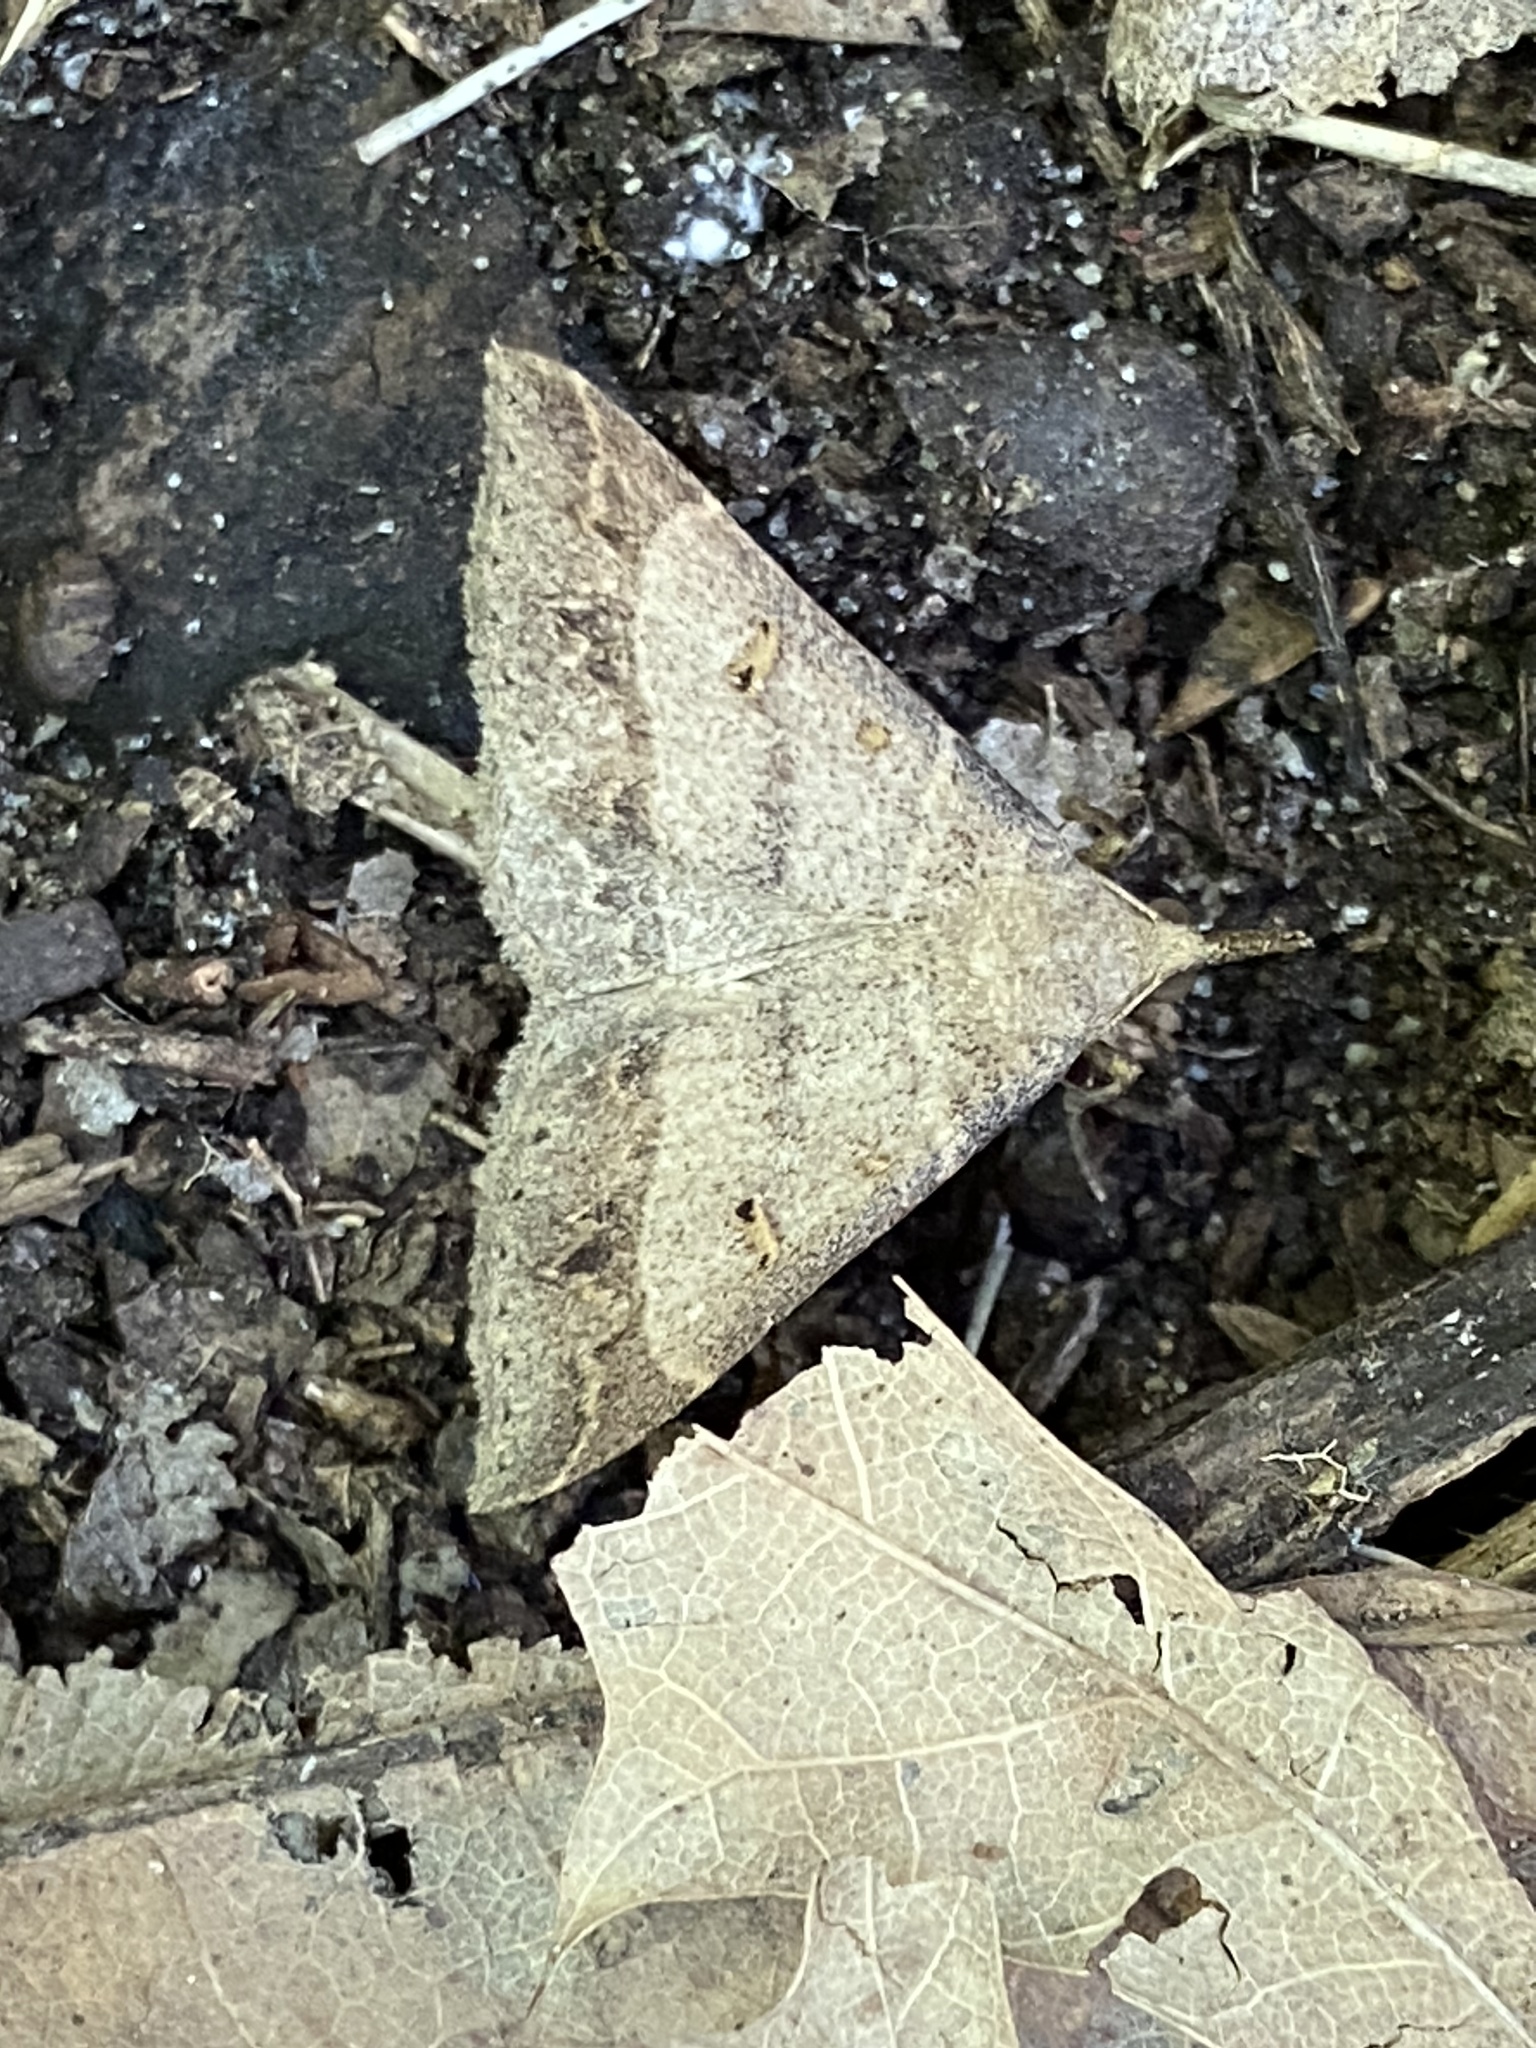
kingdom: Animalia
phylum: Arthropoda
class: Insecta
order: Lepidoptera
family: Erebidae
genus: Renia
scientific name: Renia flavipunctalis
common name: Yellow-spotted renia moth
